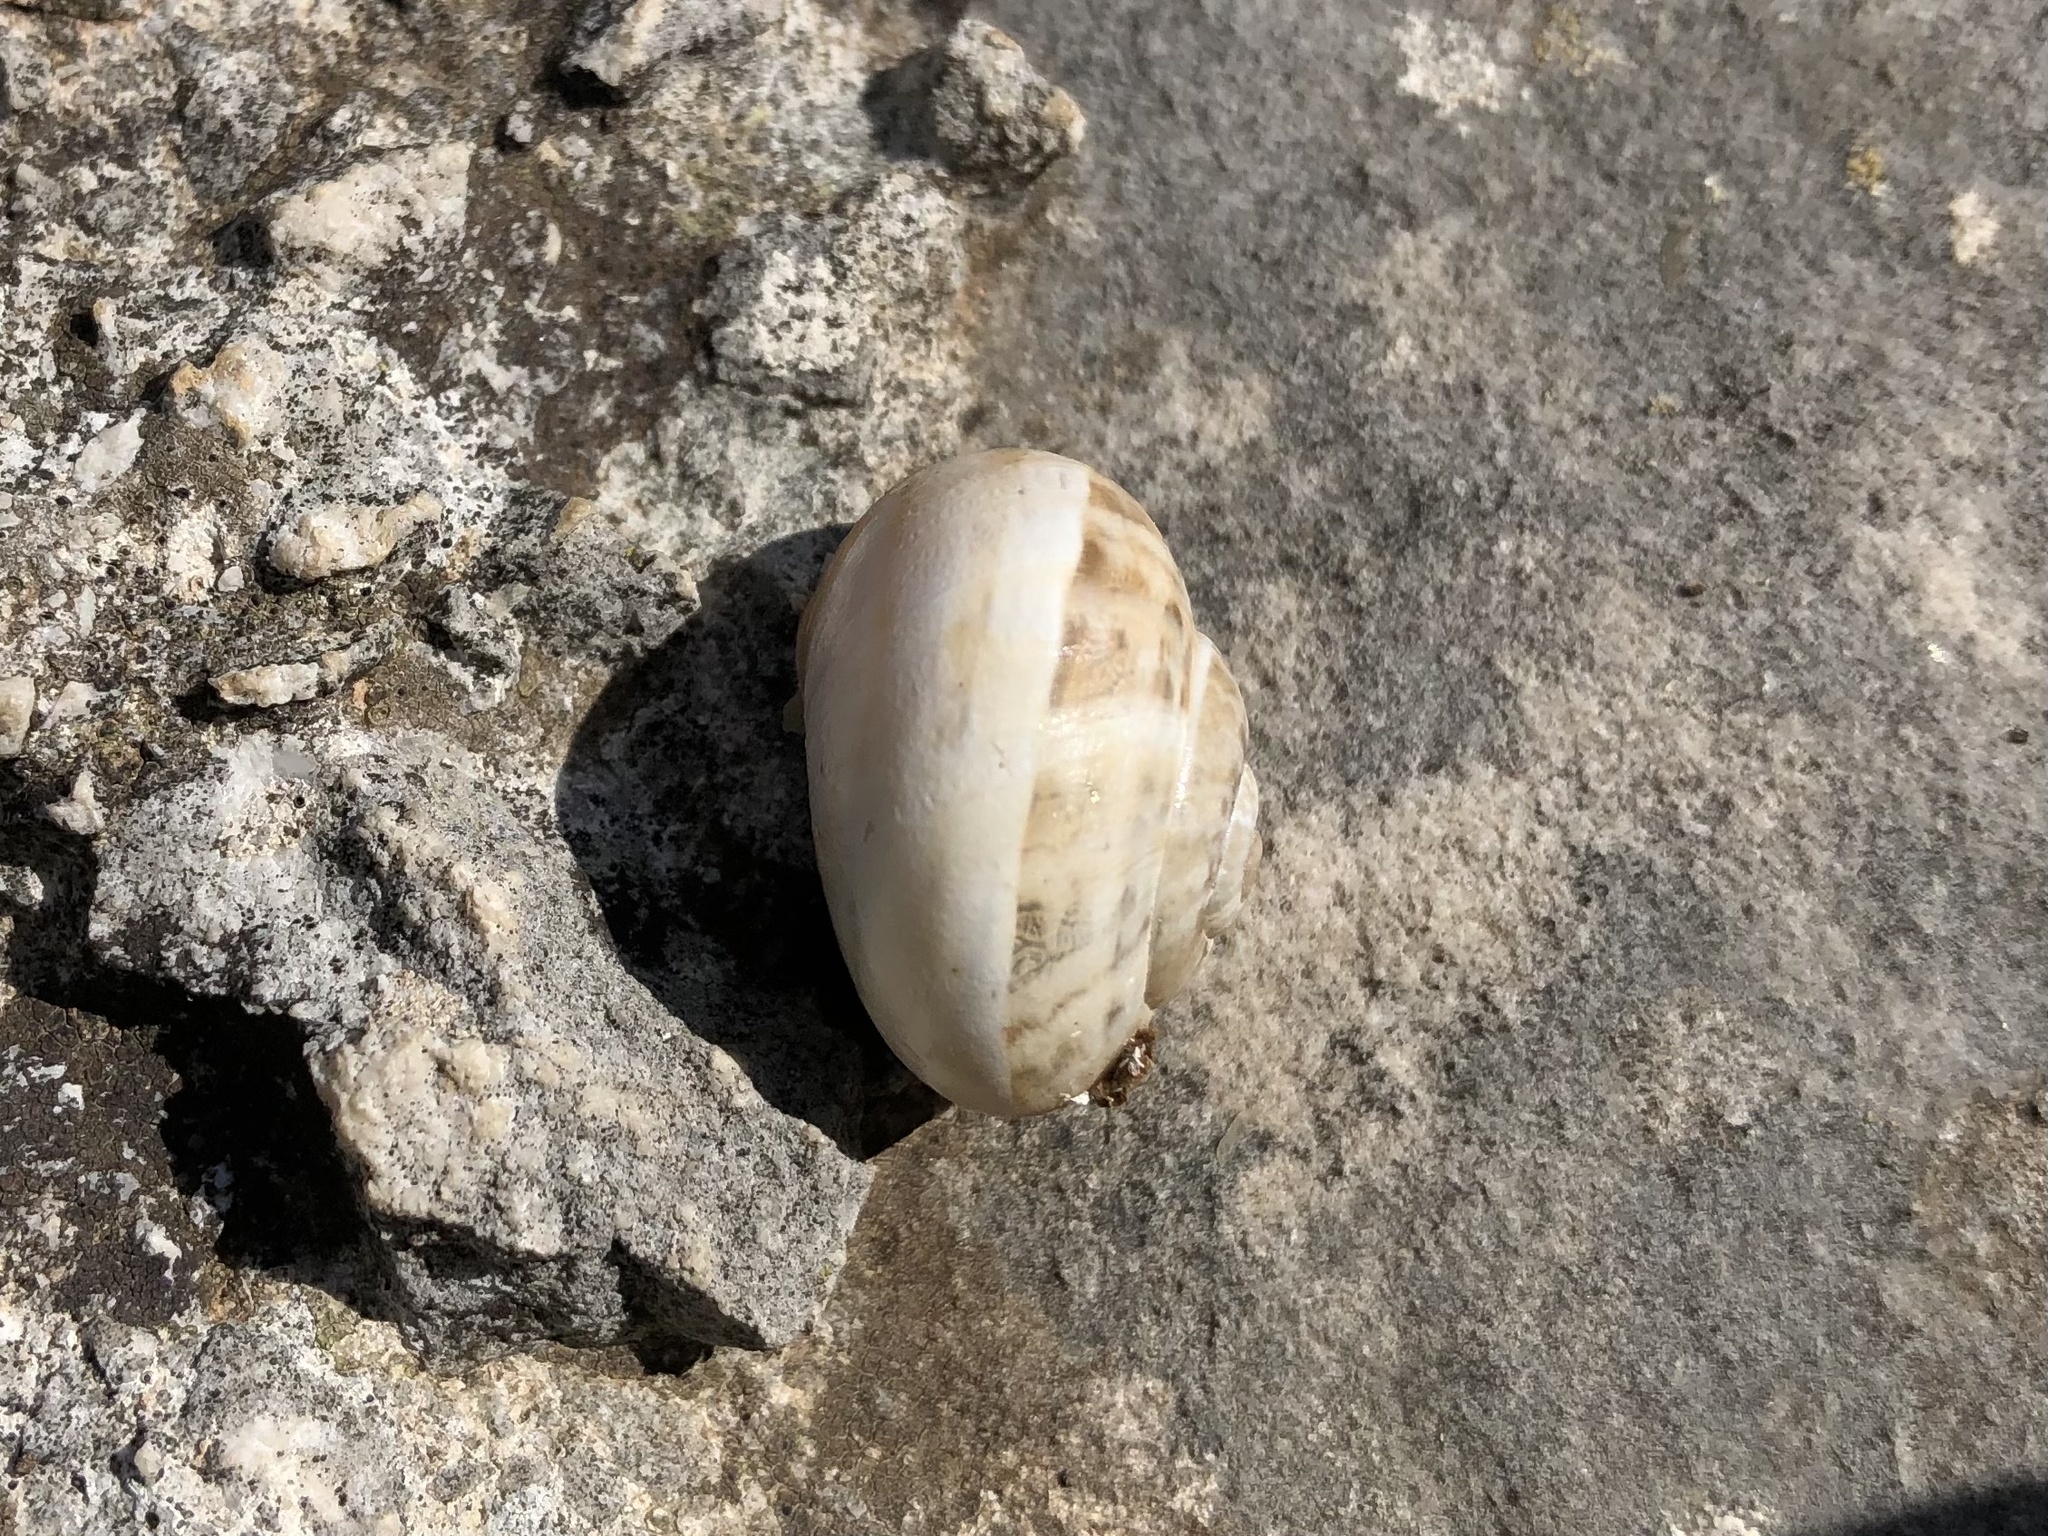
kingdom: Animalia
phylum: Mollusca
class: Gastropoda
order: Stylommatophora
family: Helicidae
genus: Eobania
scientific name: Eobania vermiculata
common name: Chocolateband snail
